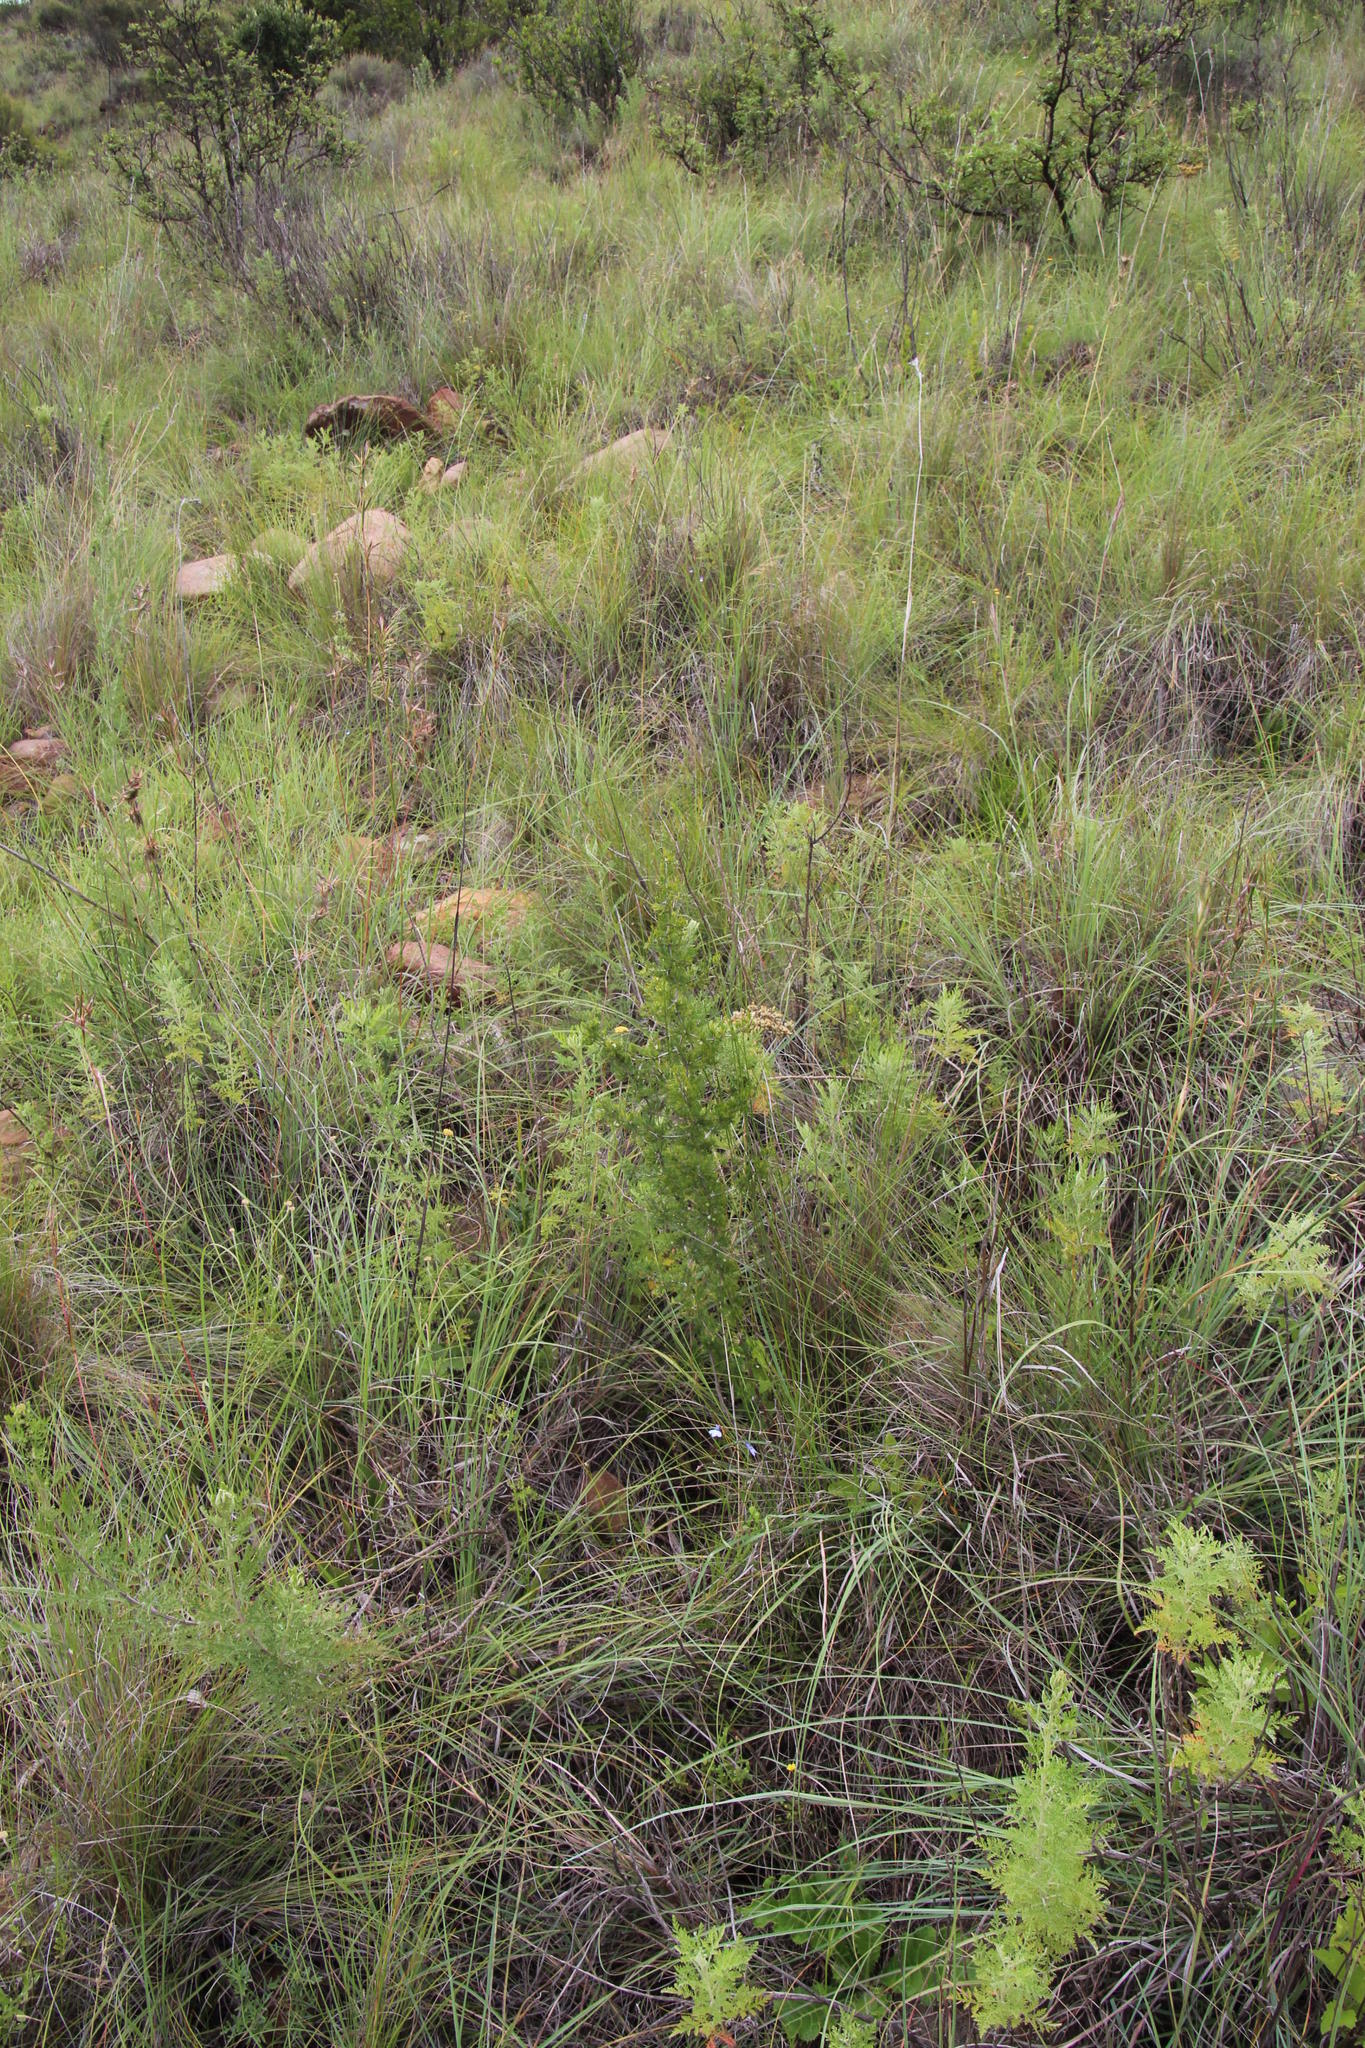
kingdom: Plantae
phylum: Tracheophyta
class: Liliopsida
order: Asparagales
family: Asparagaceae
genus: Asparagus
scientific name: Asparagus suaveolens
